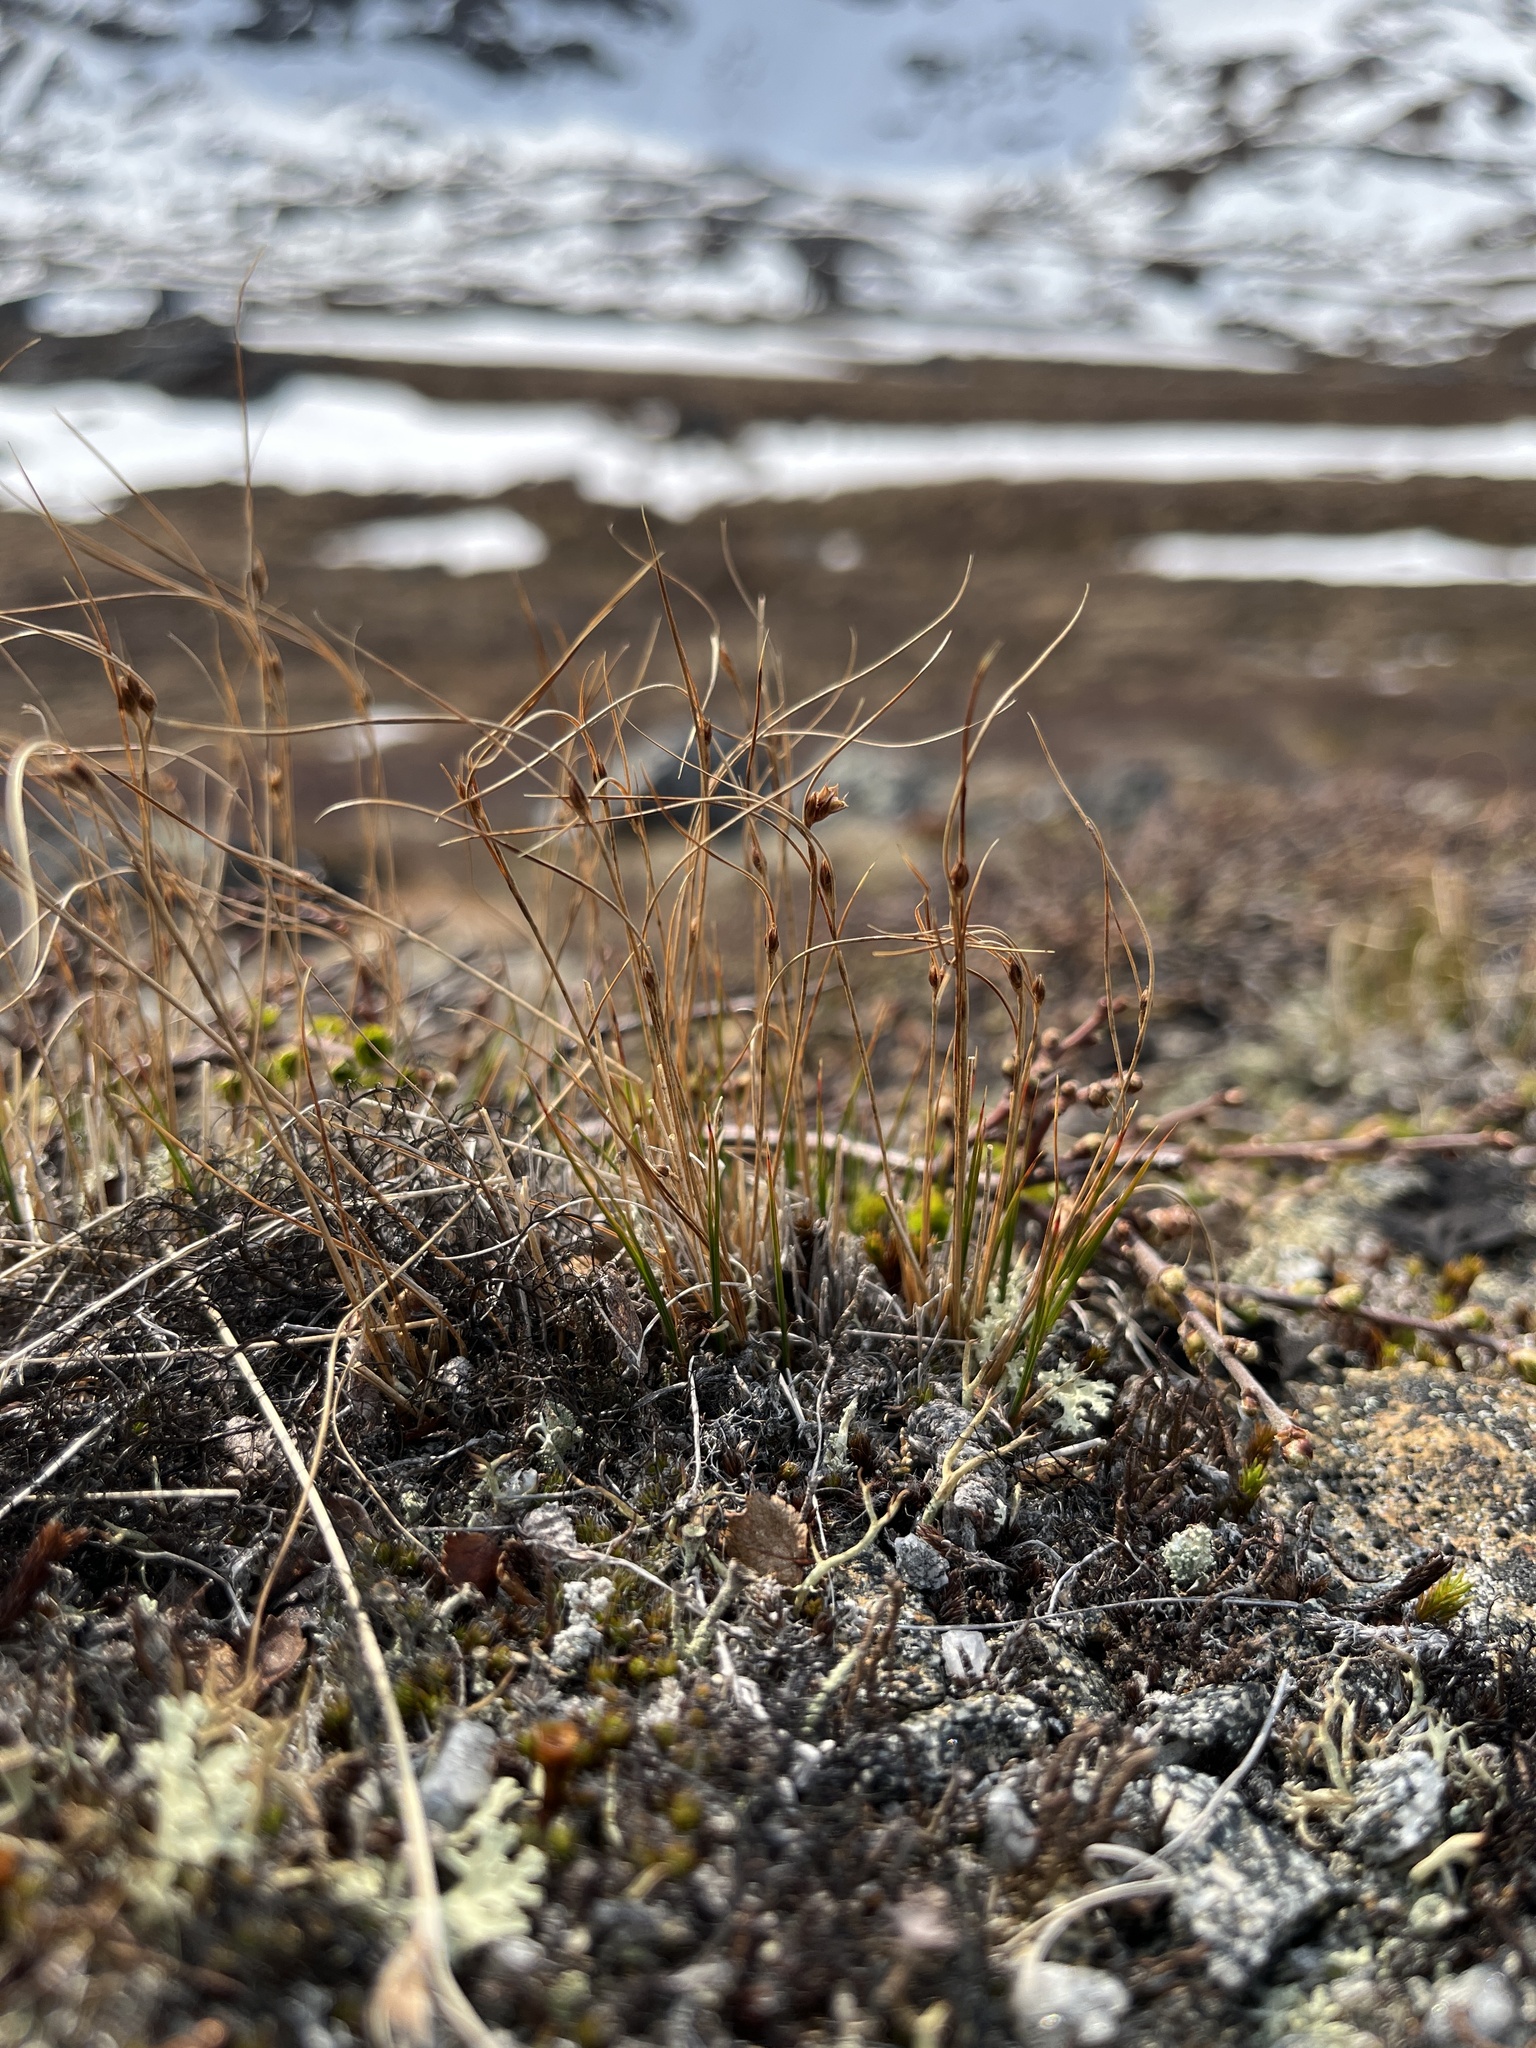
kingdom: Plantae
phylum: Tracheophyta
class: Liliopsida
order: Poales
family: Juncaceae
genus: Oreojuncus
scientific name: Oreojuncus trifidus
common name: Highland rush
